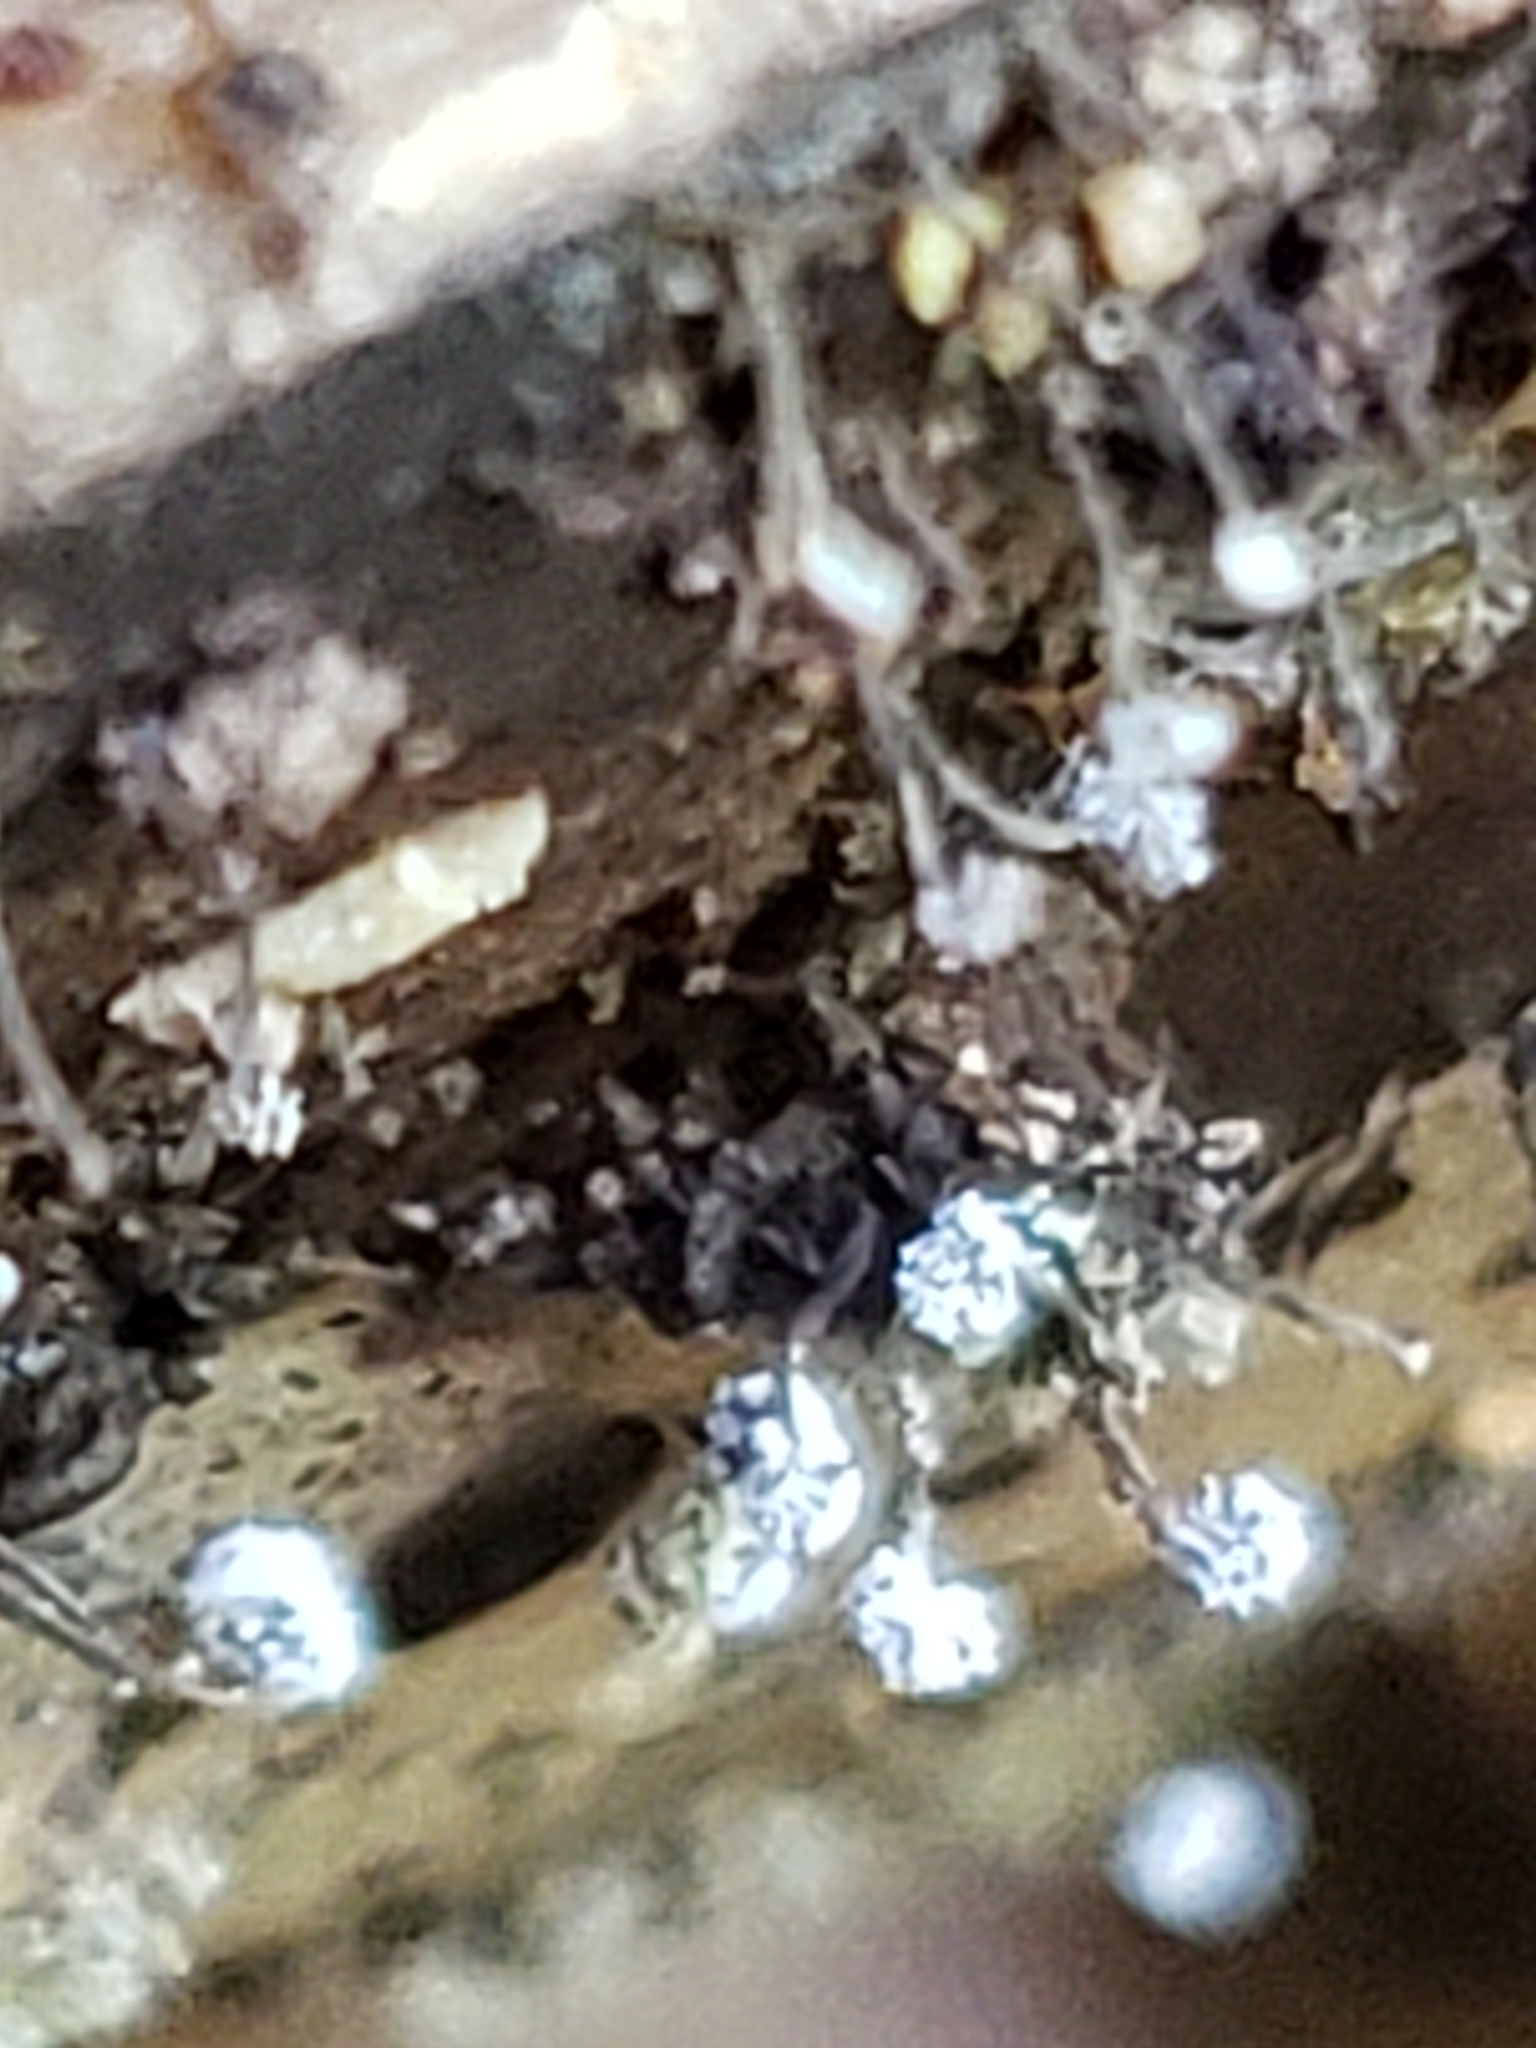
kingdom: Protozoa
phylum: Mycetozoa
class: Myxomycetes
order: Physarales
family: Physaraceae
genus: Physarum
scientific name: Physarum album
